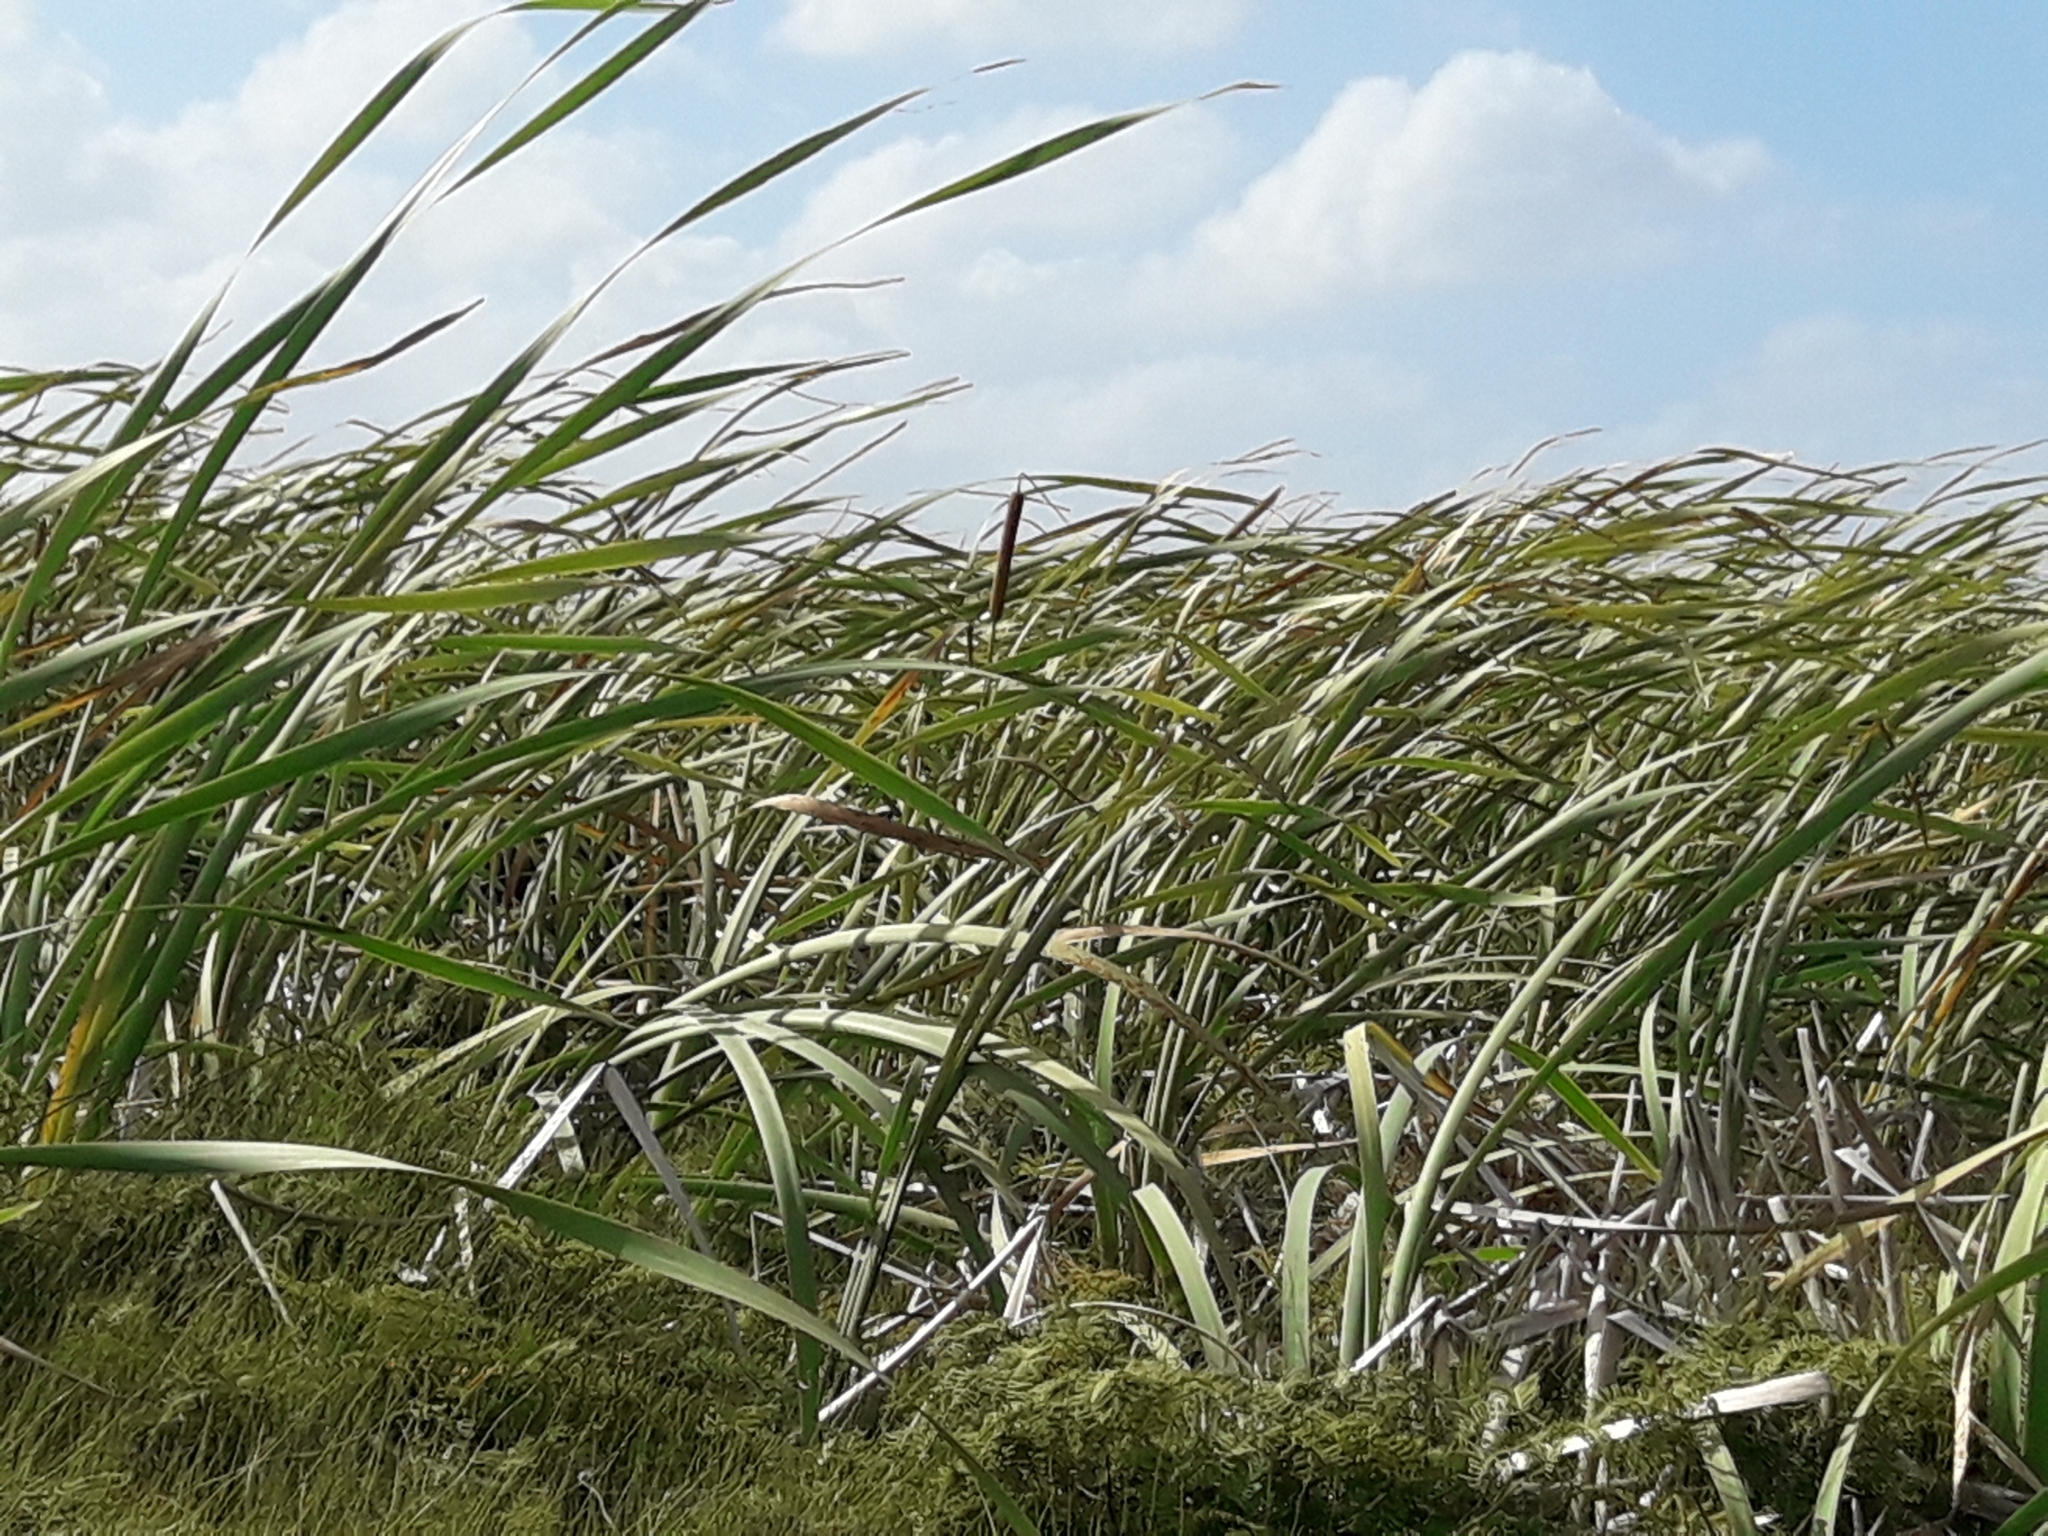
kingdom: Plantae
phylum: Tracheophyta
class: Liliopsida
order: Poales
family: Typhaceae
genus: Typha
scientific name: Typha orientalis
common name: Bullrush
